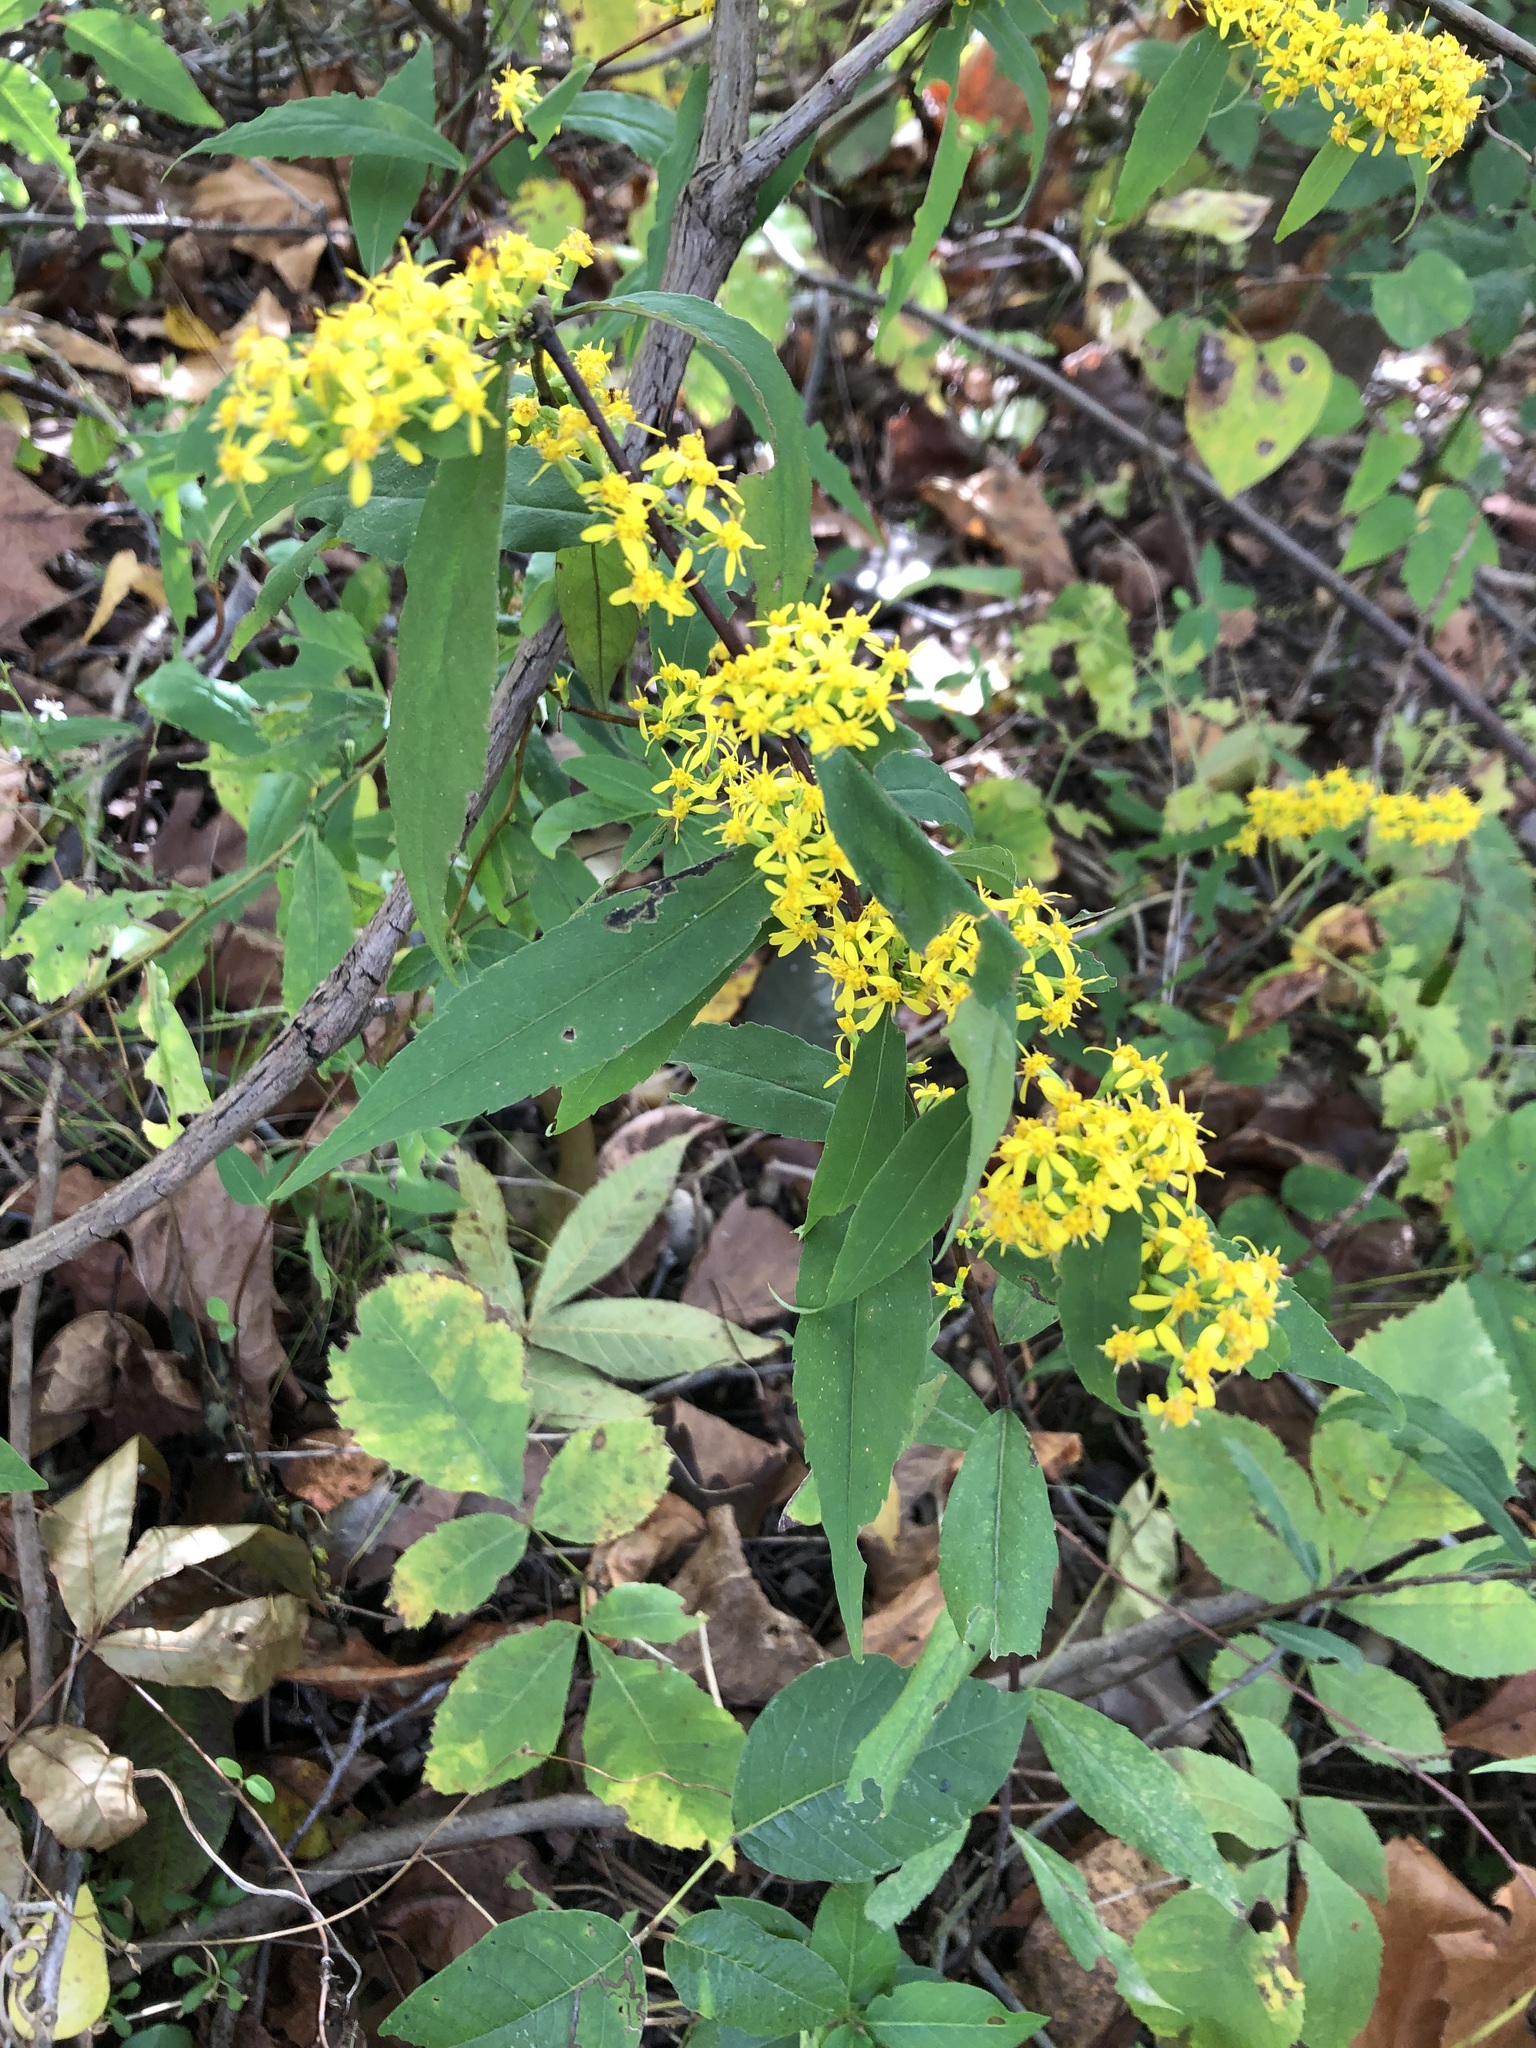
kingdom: Plantae
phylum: Tracheophyta
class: Magnoliopsida
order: Asterales
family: Asteraceae
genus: Solidago
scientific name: Solidago caesia
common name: Woodland goldenrod
